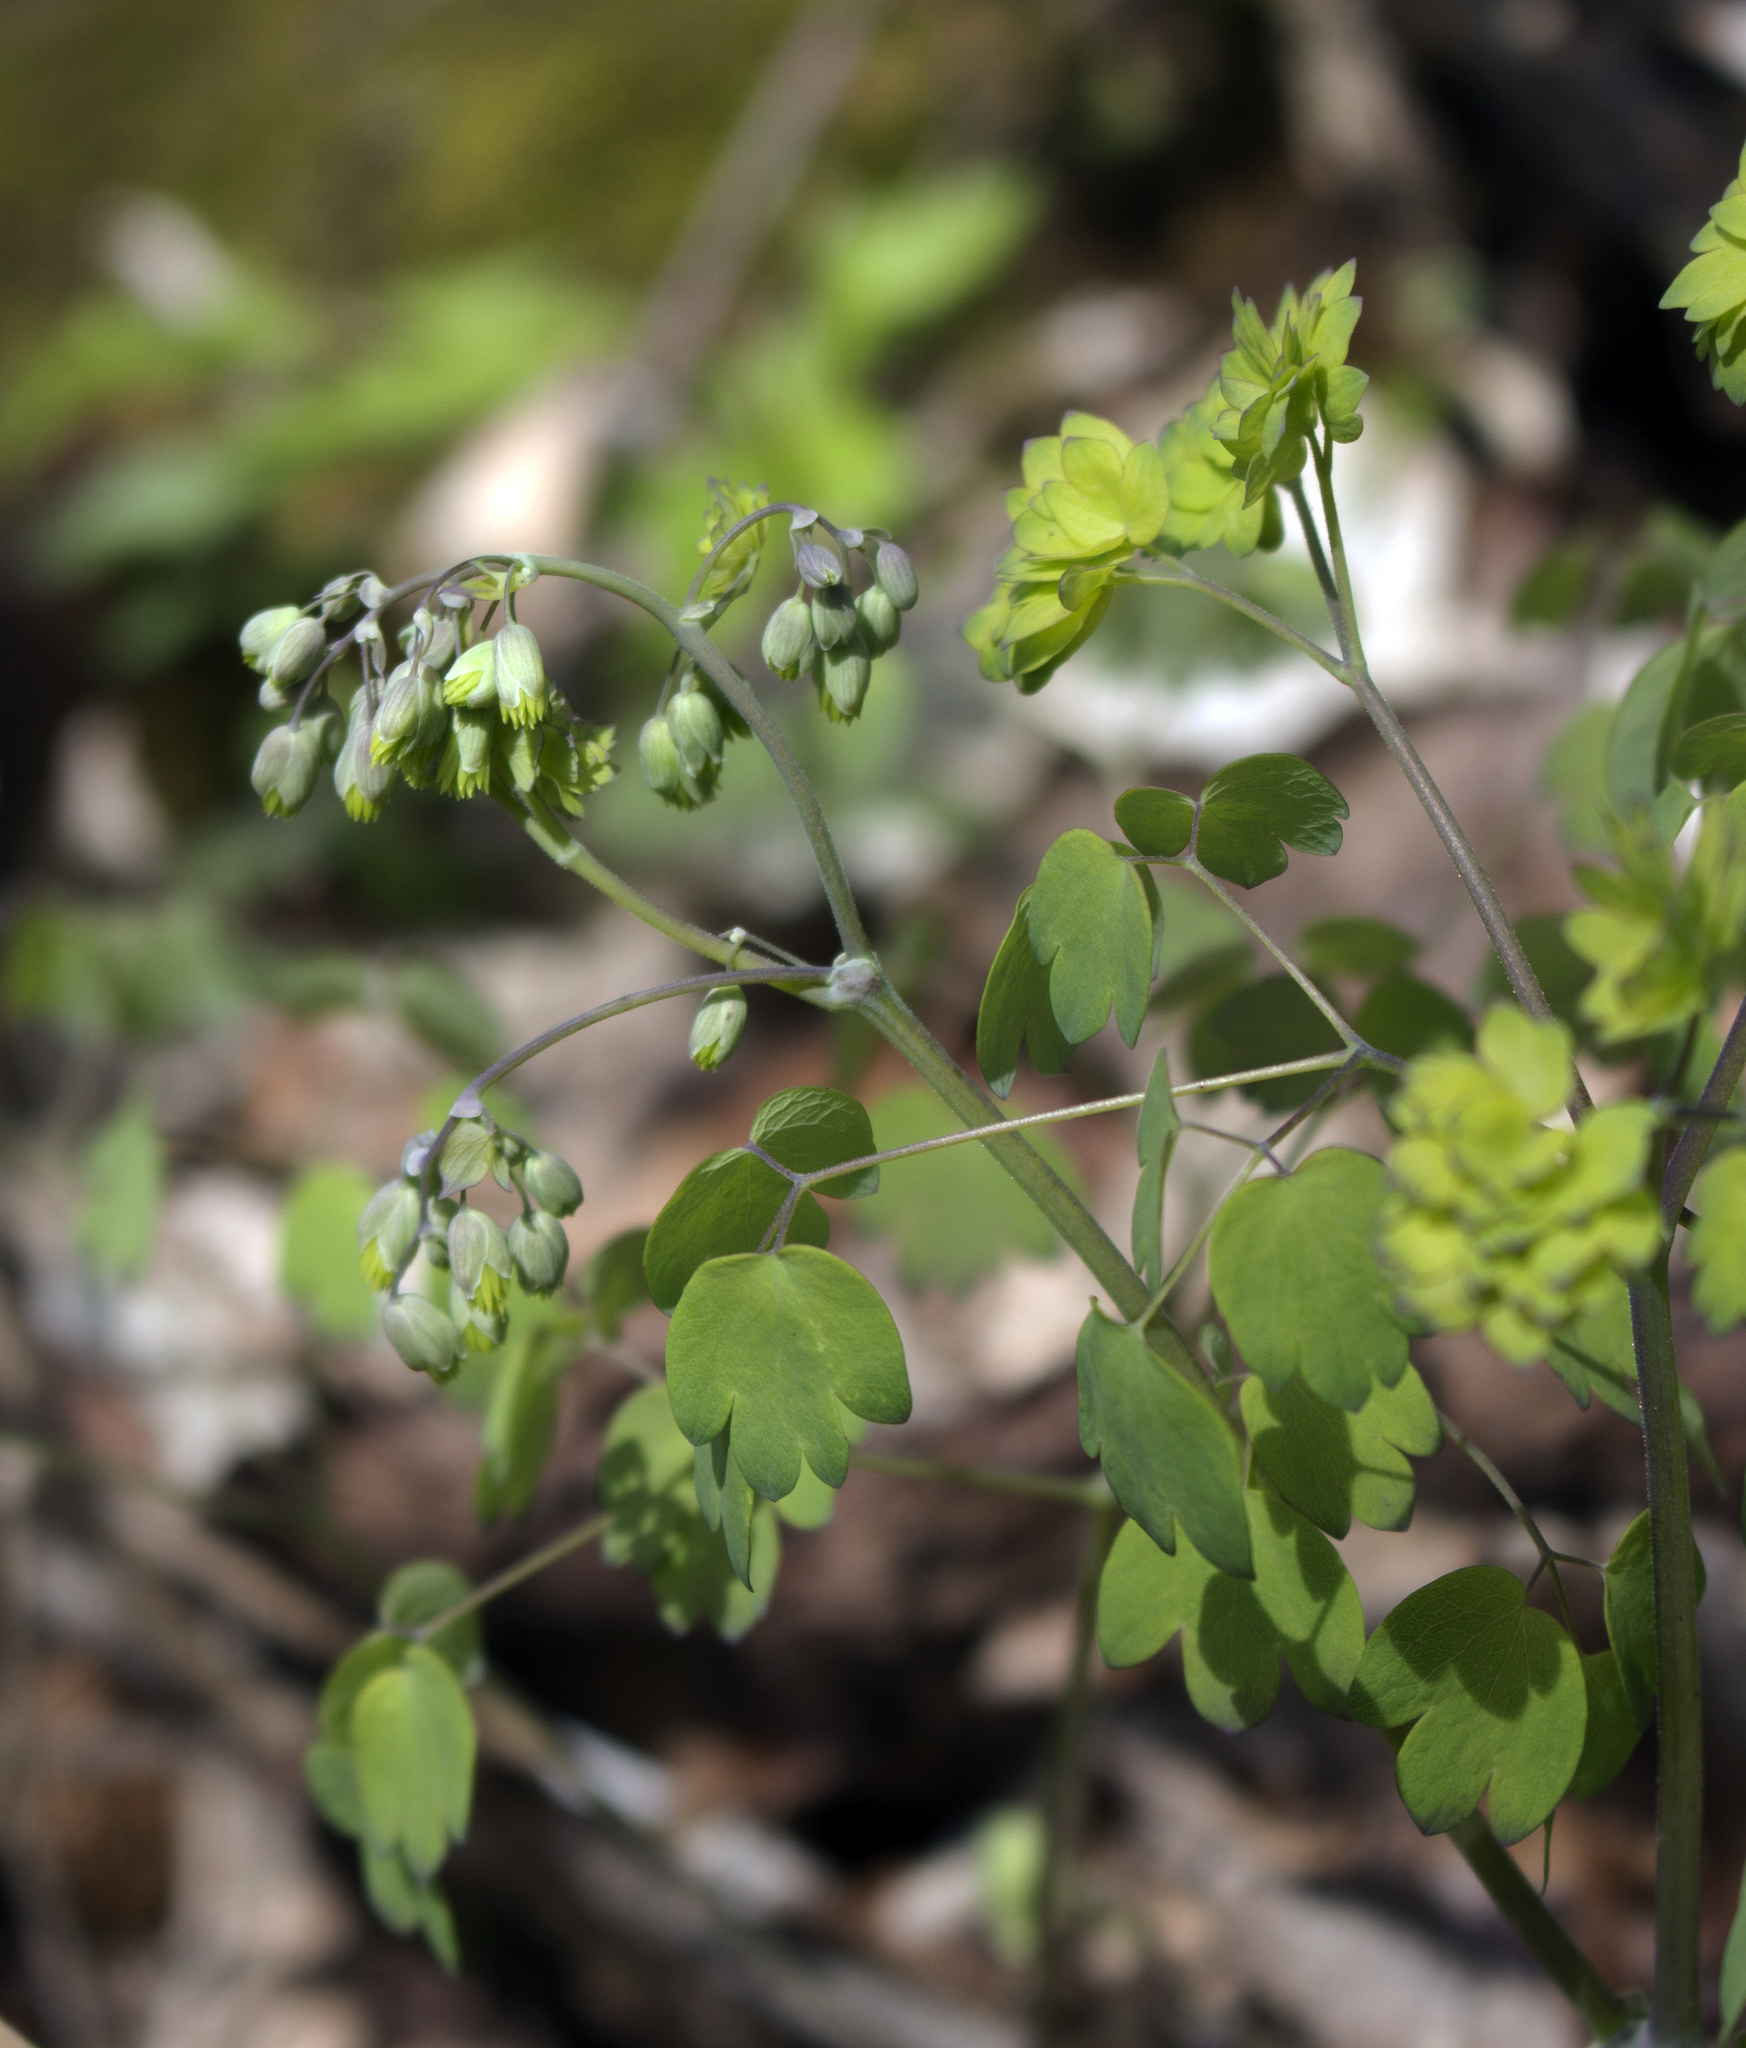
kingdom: Plantae
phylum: Tracheophyta
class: Magnoliopsida
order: Ranunculales
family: Ranunculaceae
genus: Thalictrum
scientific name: Thalictrum dioicum
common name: Early meadow-rue
